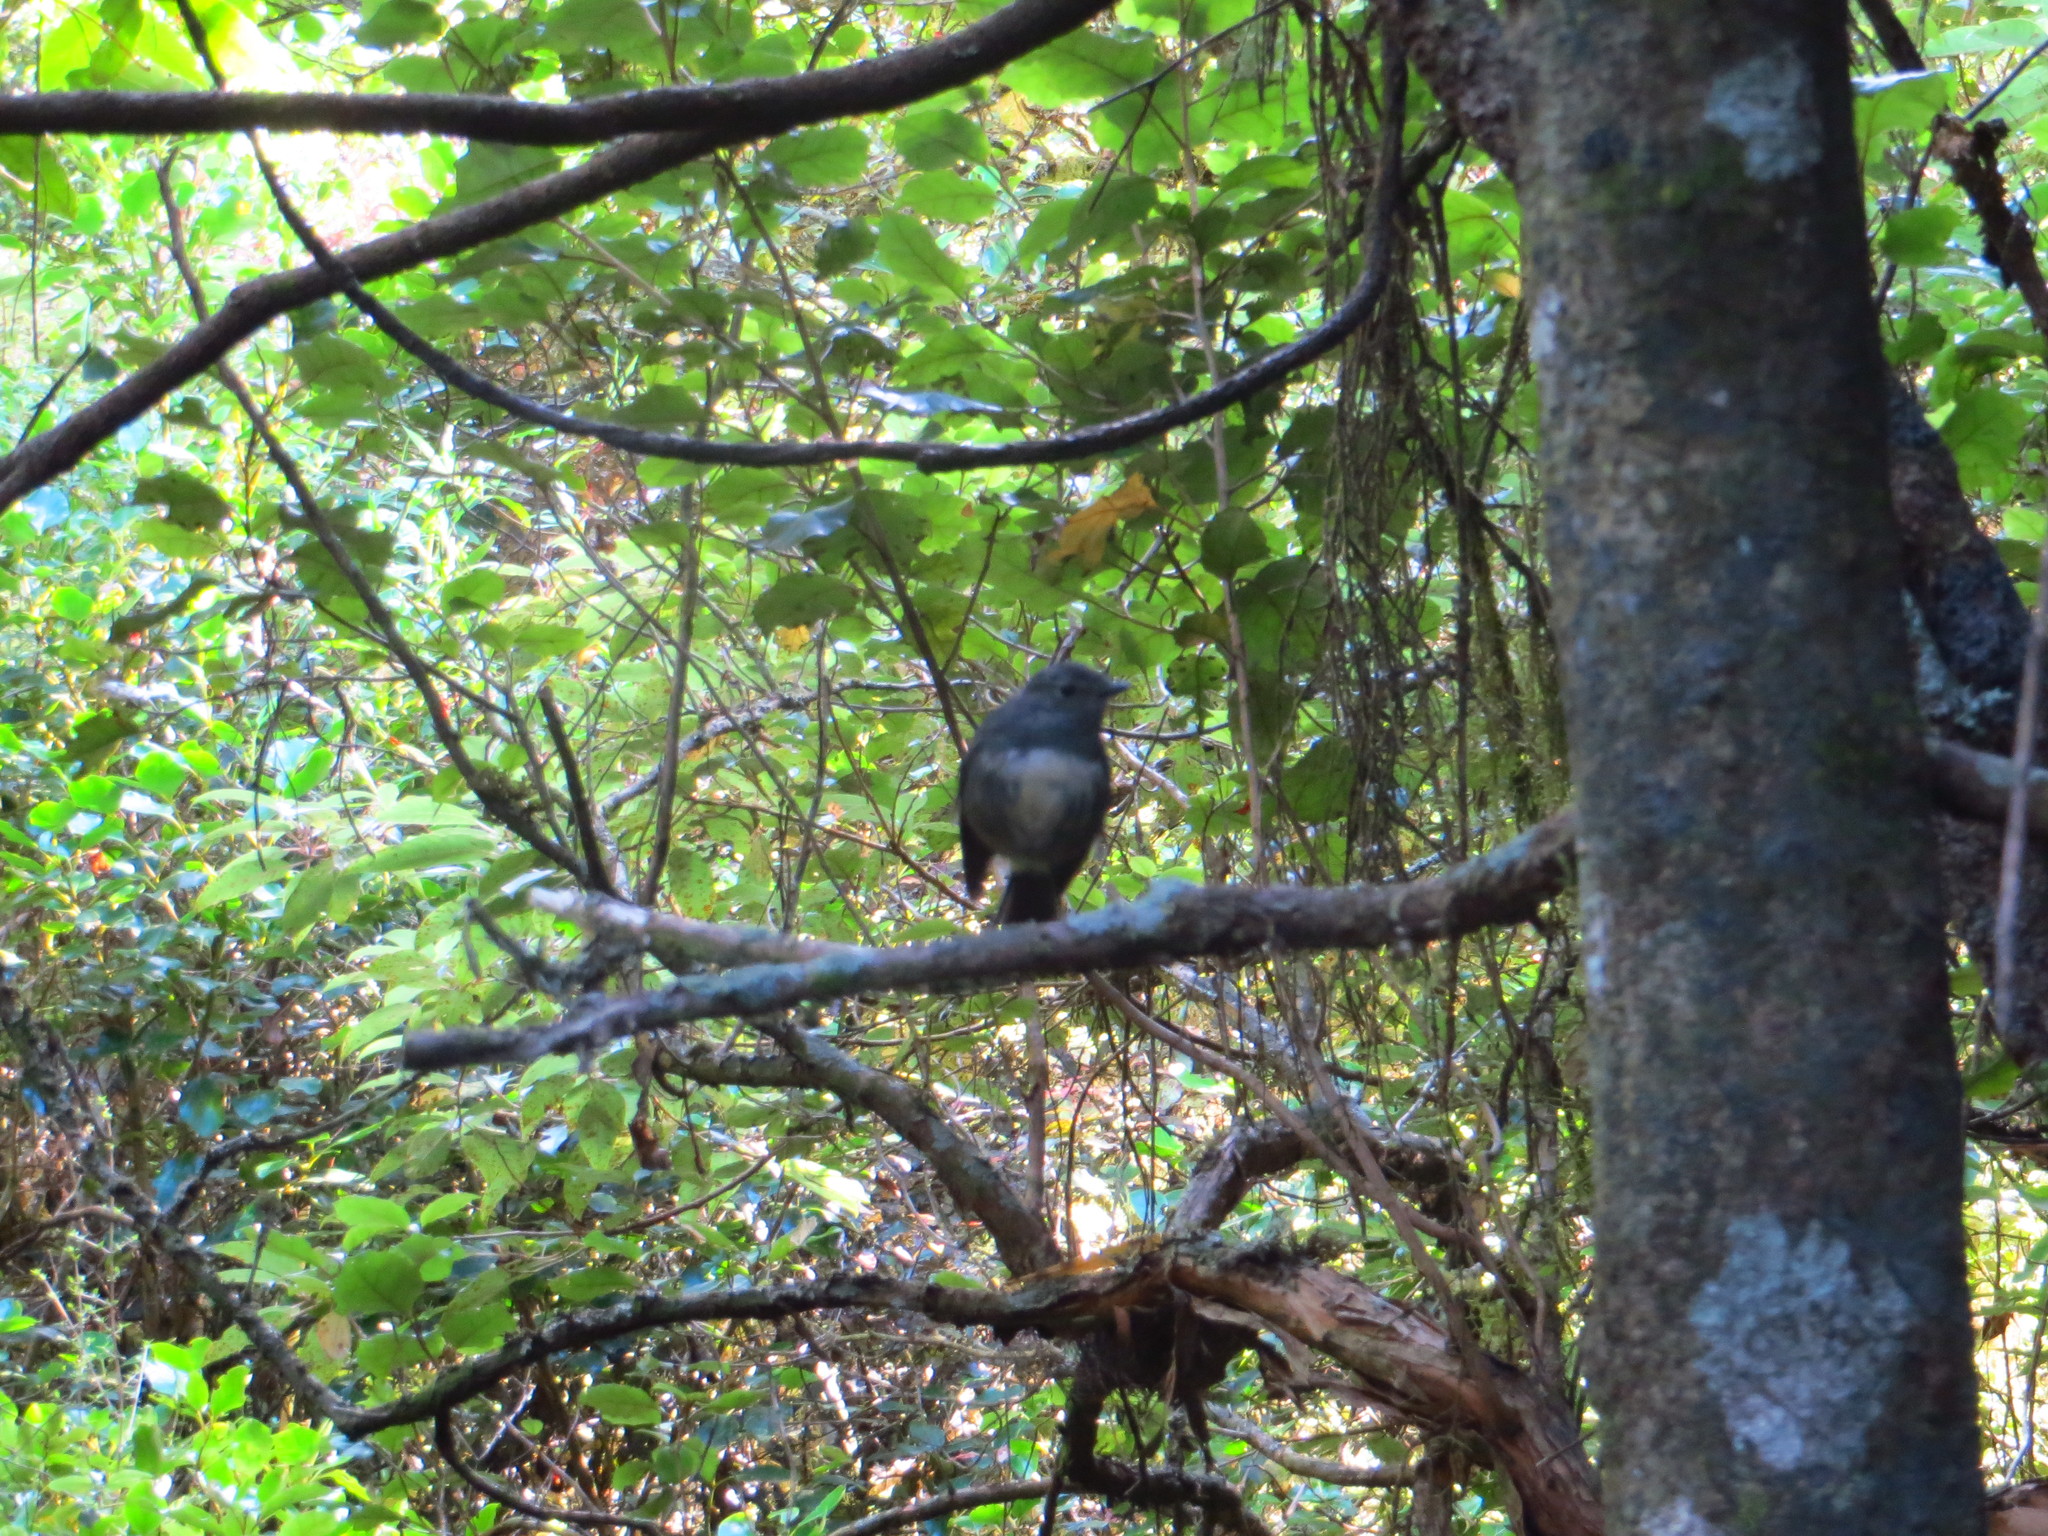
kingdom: Animalia
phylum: Chordata
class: Aves
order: Passeriformes
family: Petroicidae
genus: Petroica
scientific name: Petroica australis
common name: New zealand robin
